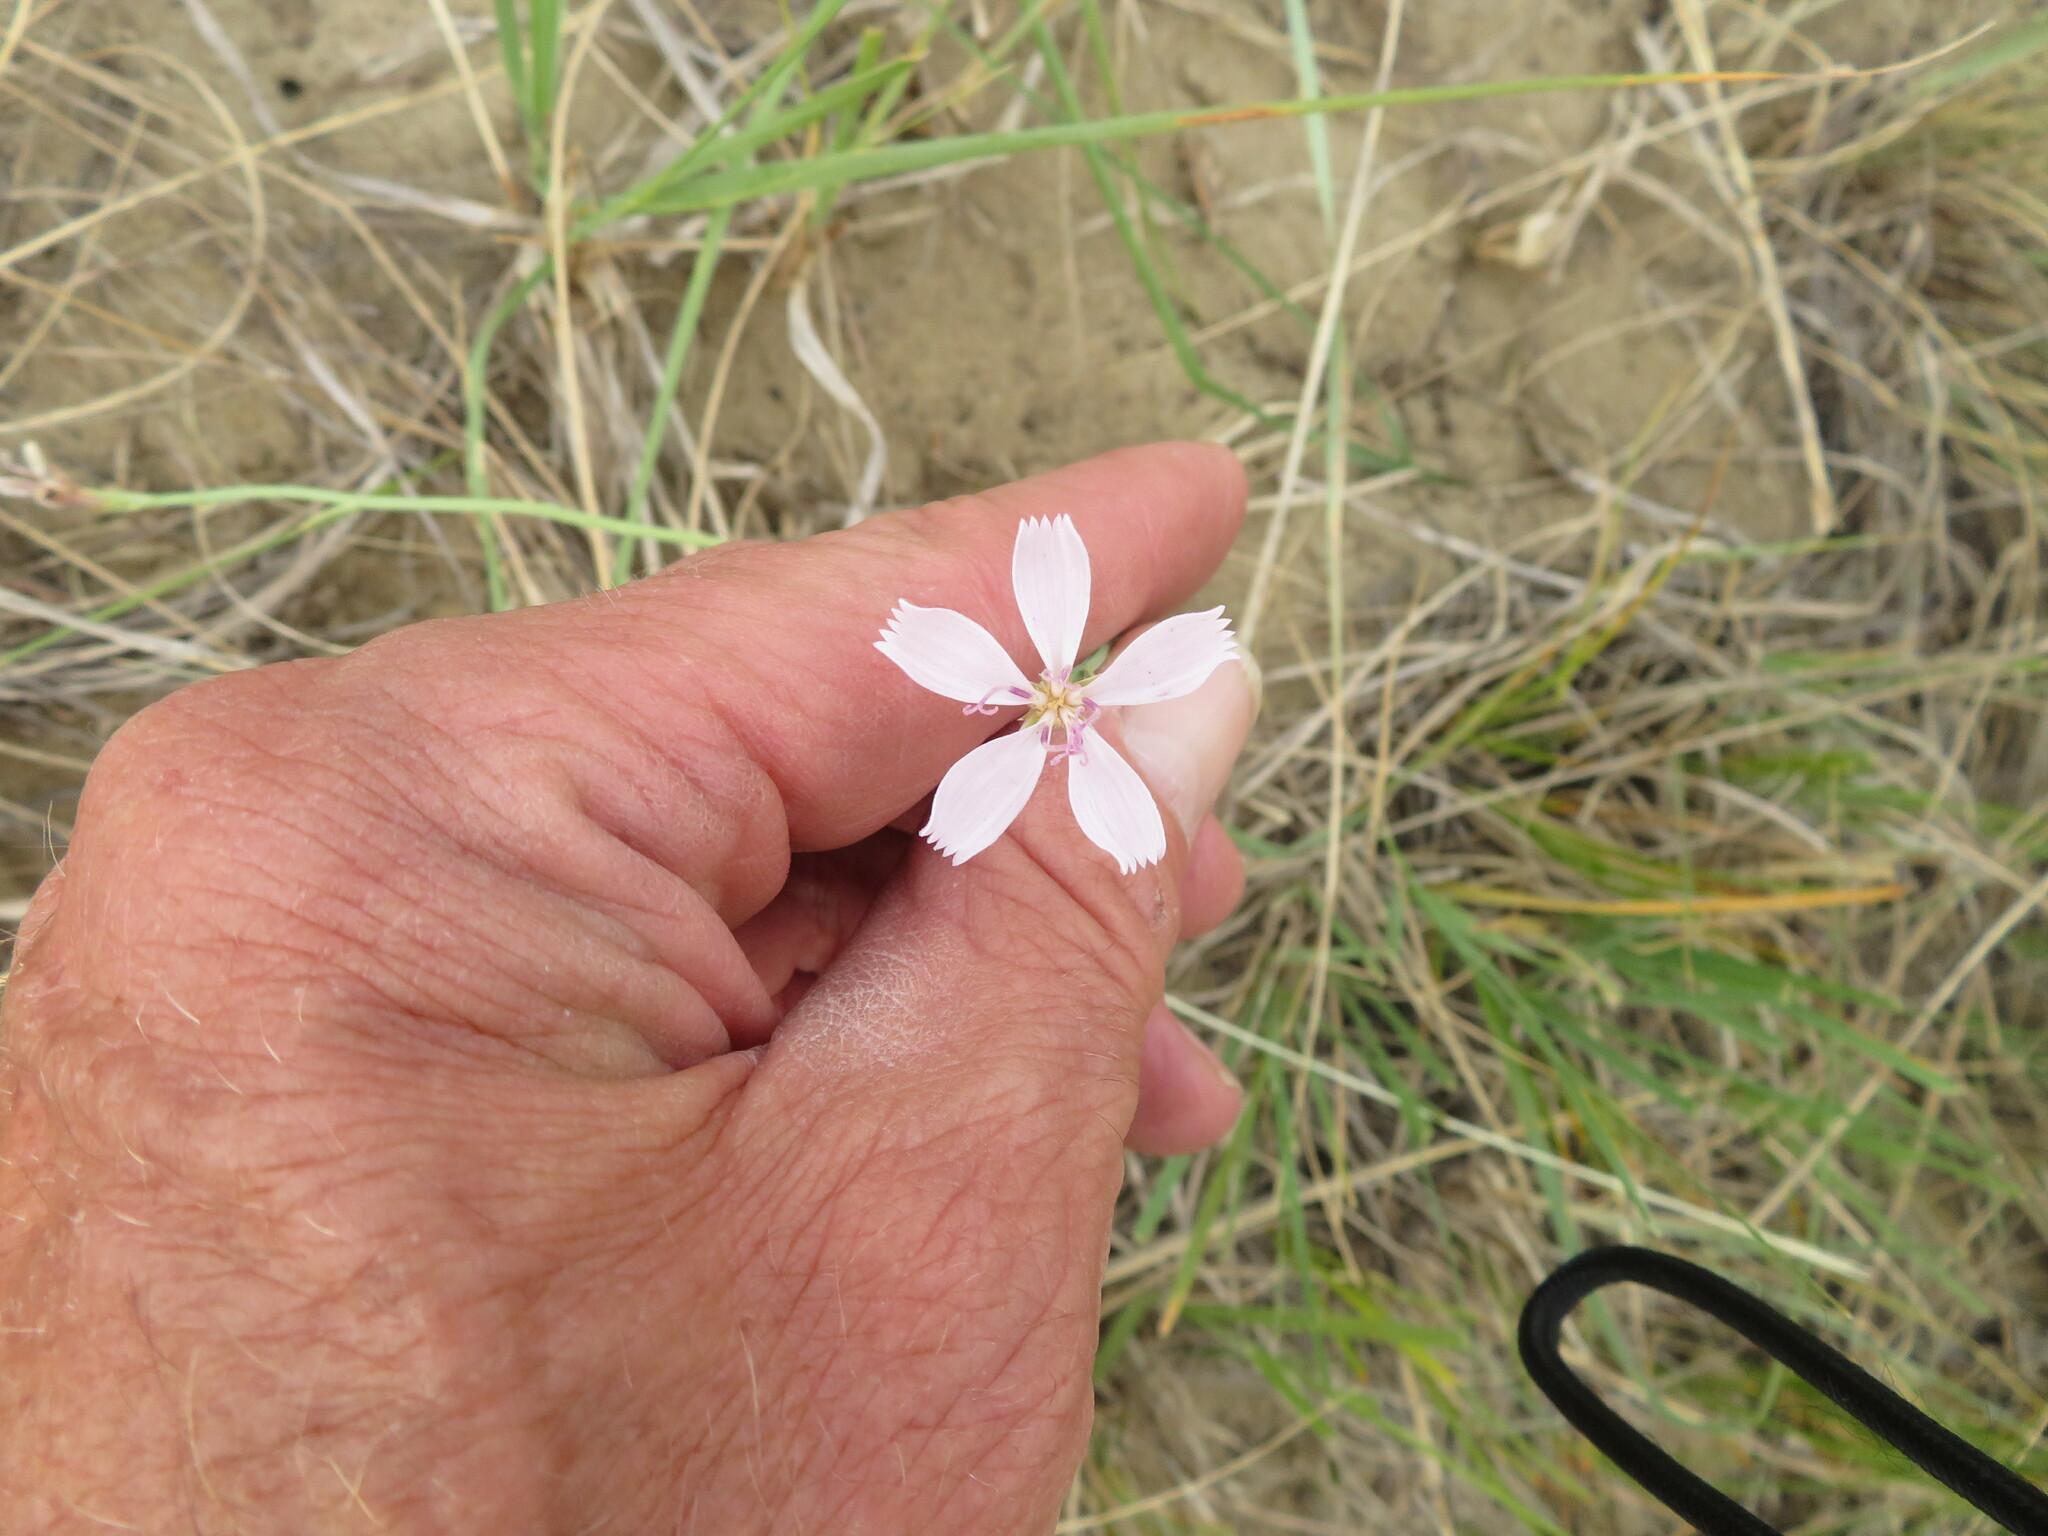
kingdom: Plantae
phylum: Tracheophyta
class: Magnoliopsida
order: Asterales
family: Asteraceae
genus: Lygodesmia
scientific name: Lygodesmia juncea
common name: Common skeletonweed
